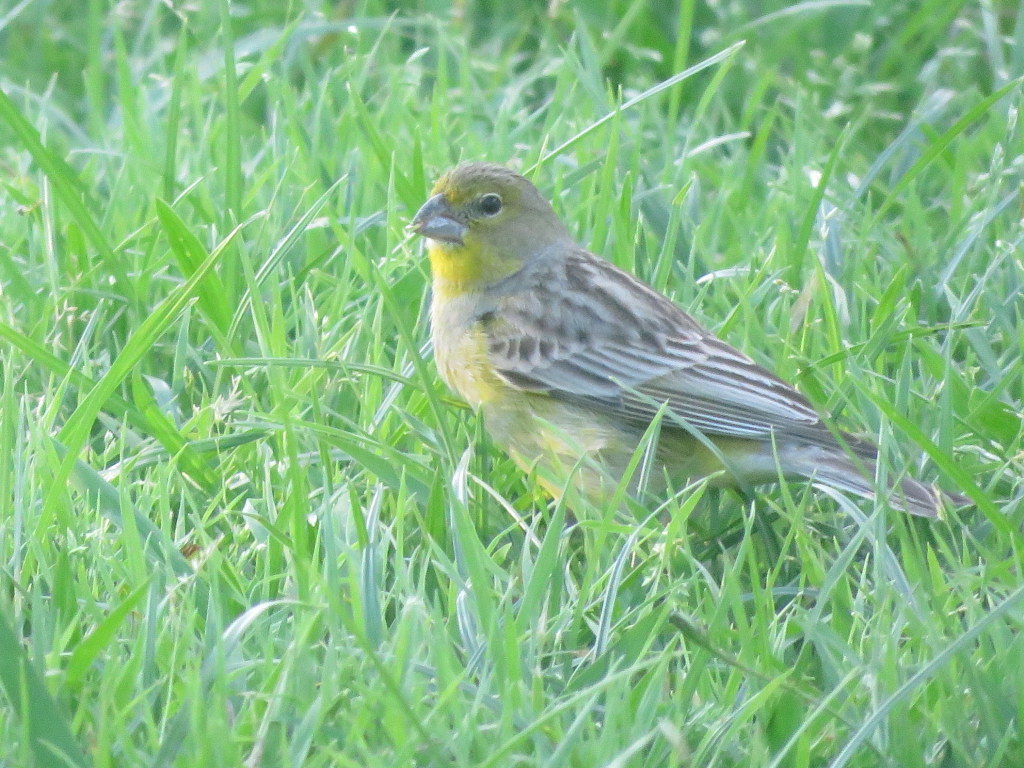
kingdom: Animalia
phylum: Chordata
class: Aves
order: Passeriformes
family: Thraupidae
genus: Sicalis
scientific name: Sicalis luteola
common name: Grassland yellow-finch
